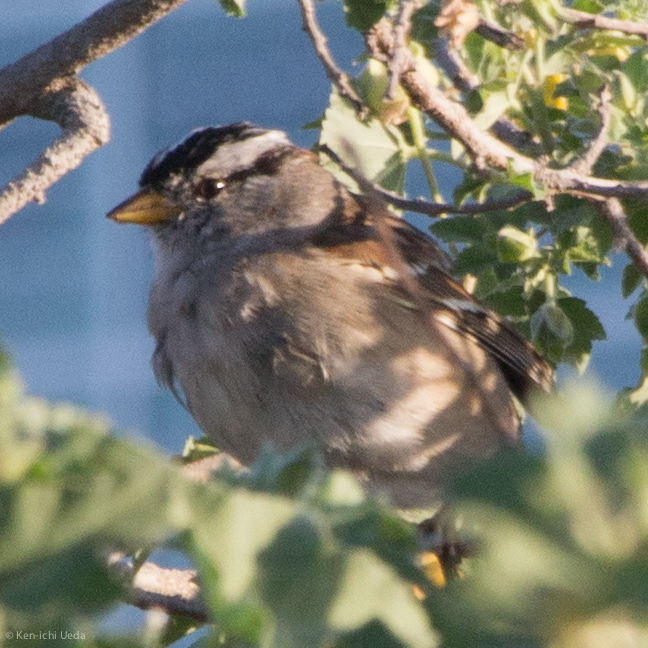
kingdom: Animalia
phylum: Chordata
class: Aves
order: Passeriformes
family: Passerellidae
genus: Zonotrichia
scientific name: Zonotrichia leucophrys
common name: White-crowned sparrow
